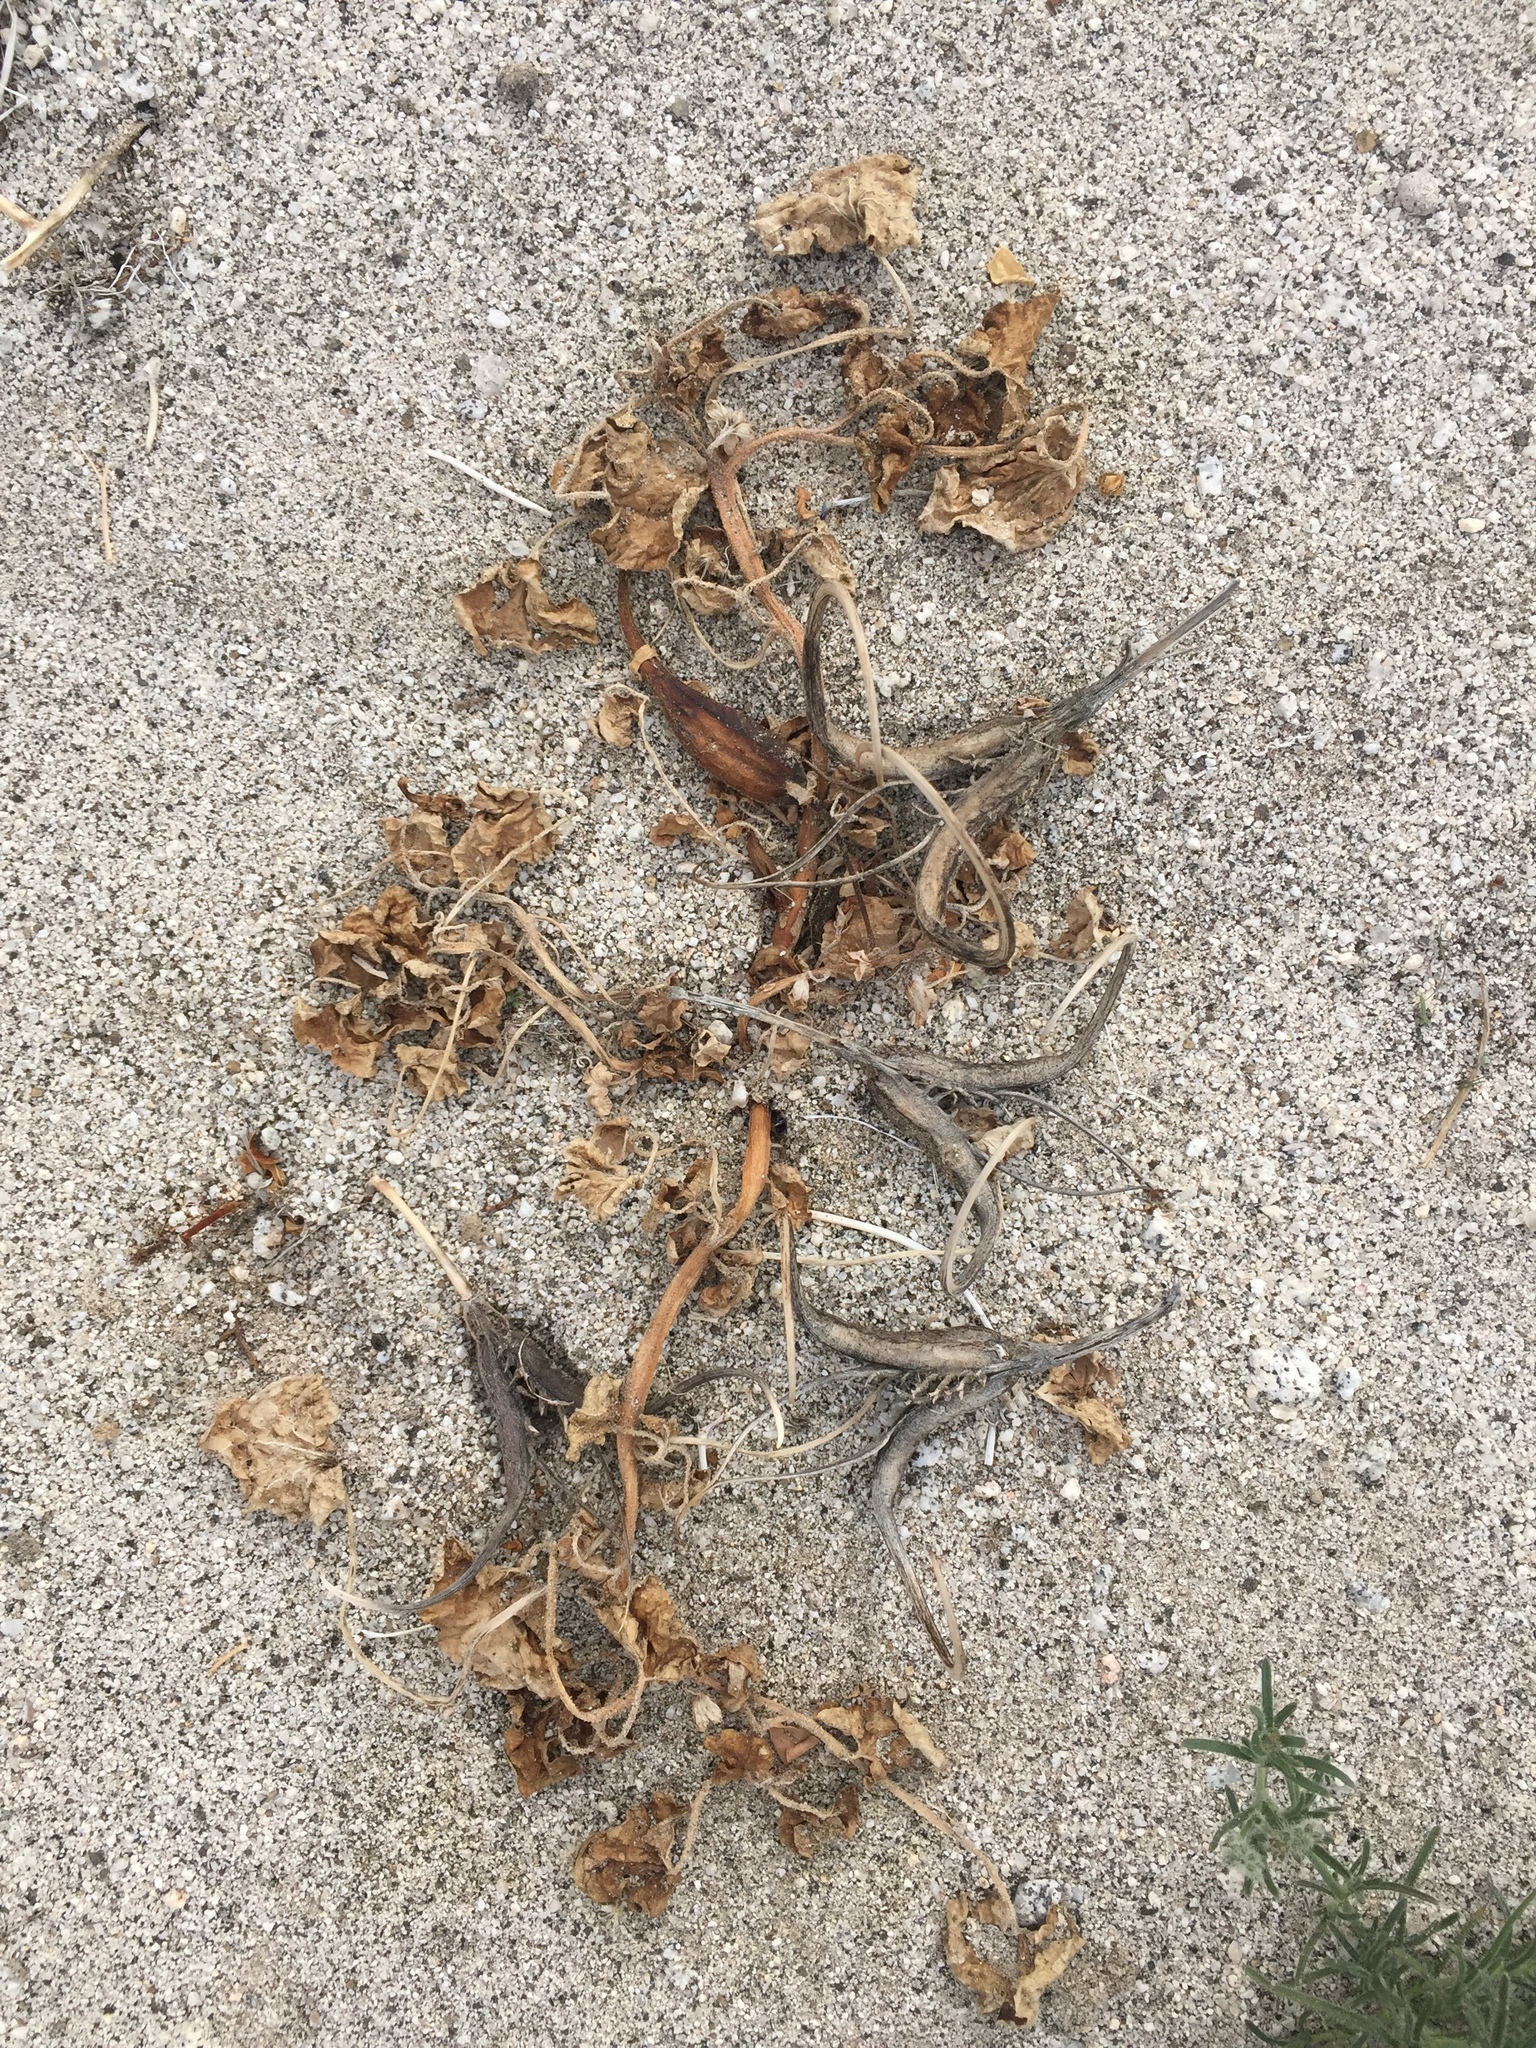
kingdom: Plantae
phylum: Tracheophyta
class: Magnoliopsida
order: Lamiales
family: Martyniaceae
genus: Proboscidea
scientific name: Proboscidea althaeifolia
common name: Desert unicorn-plant
